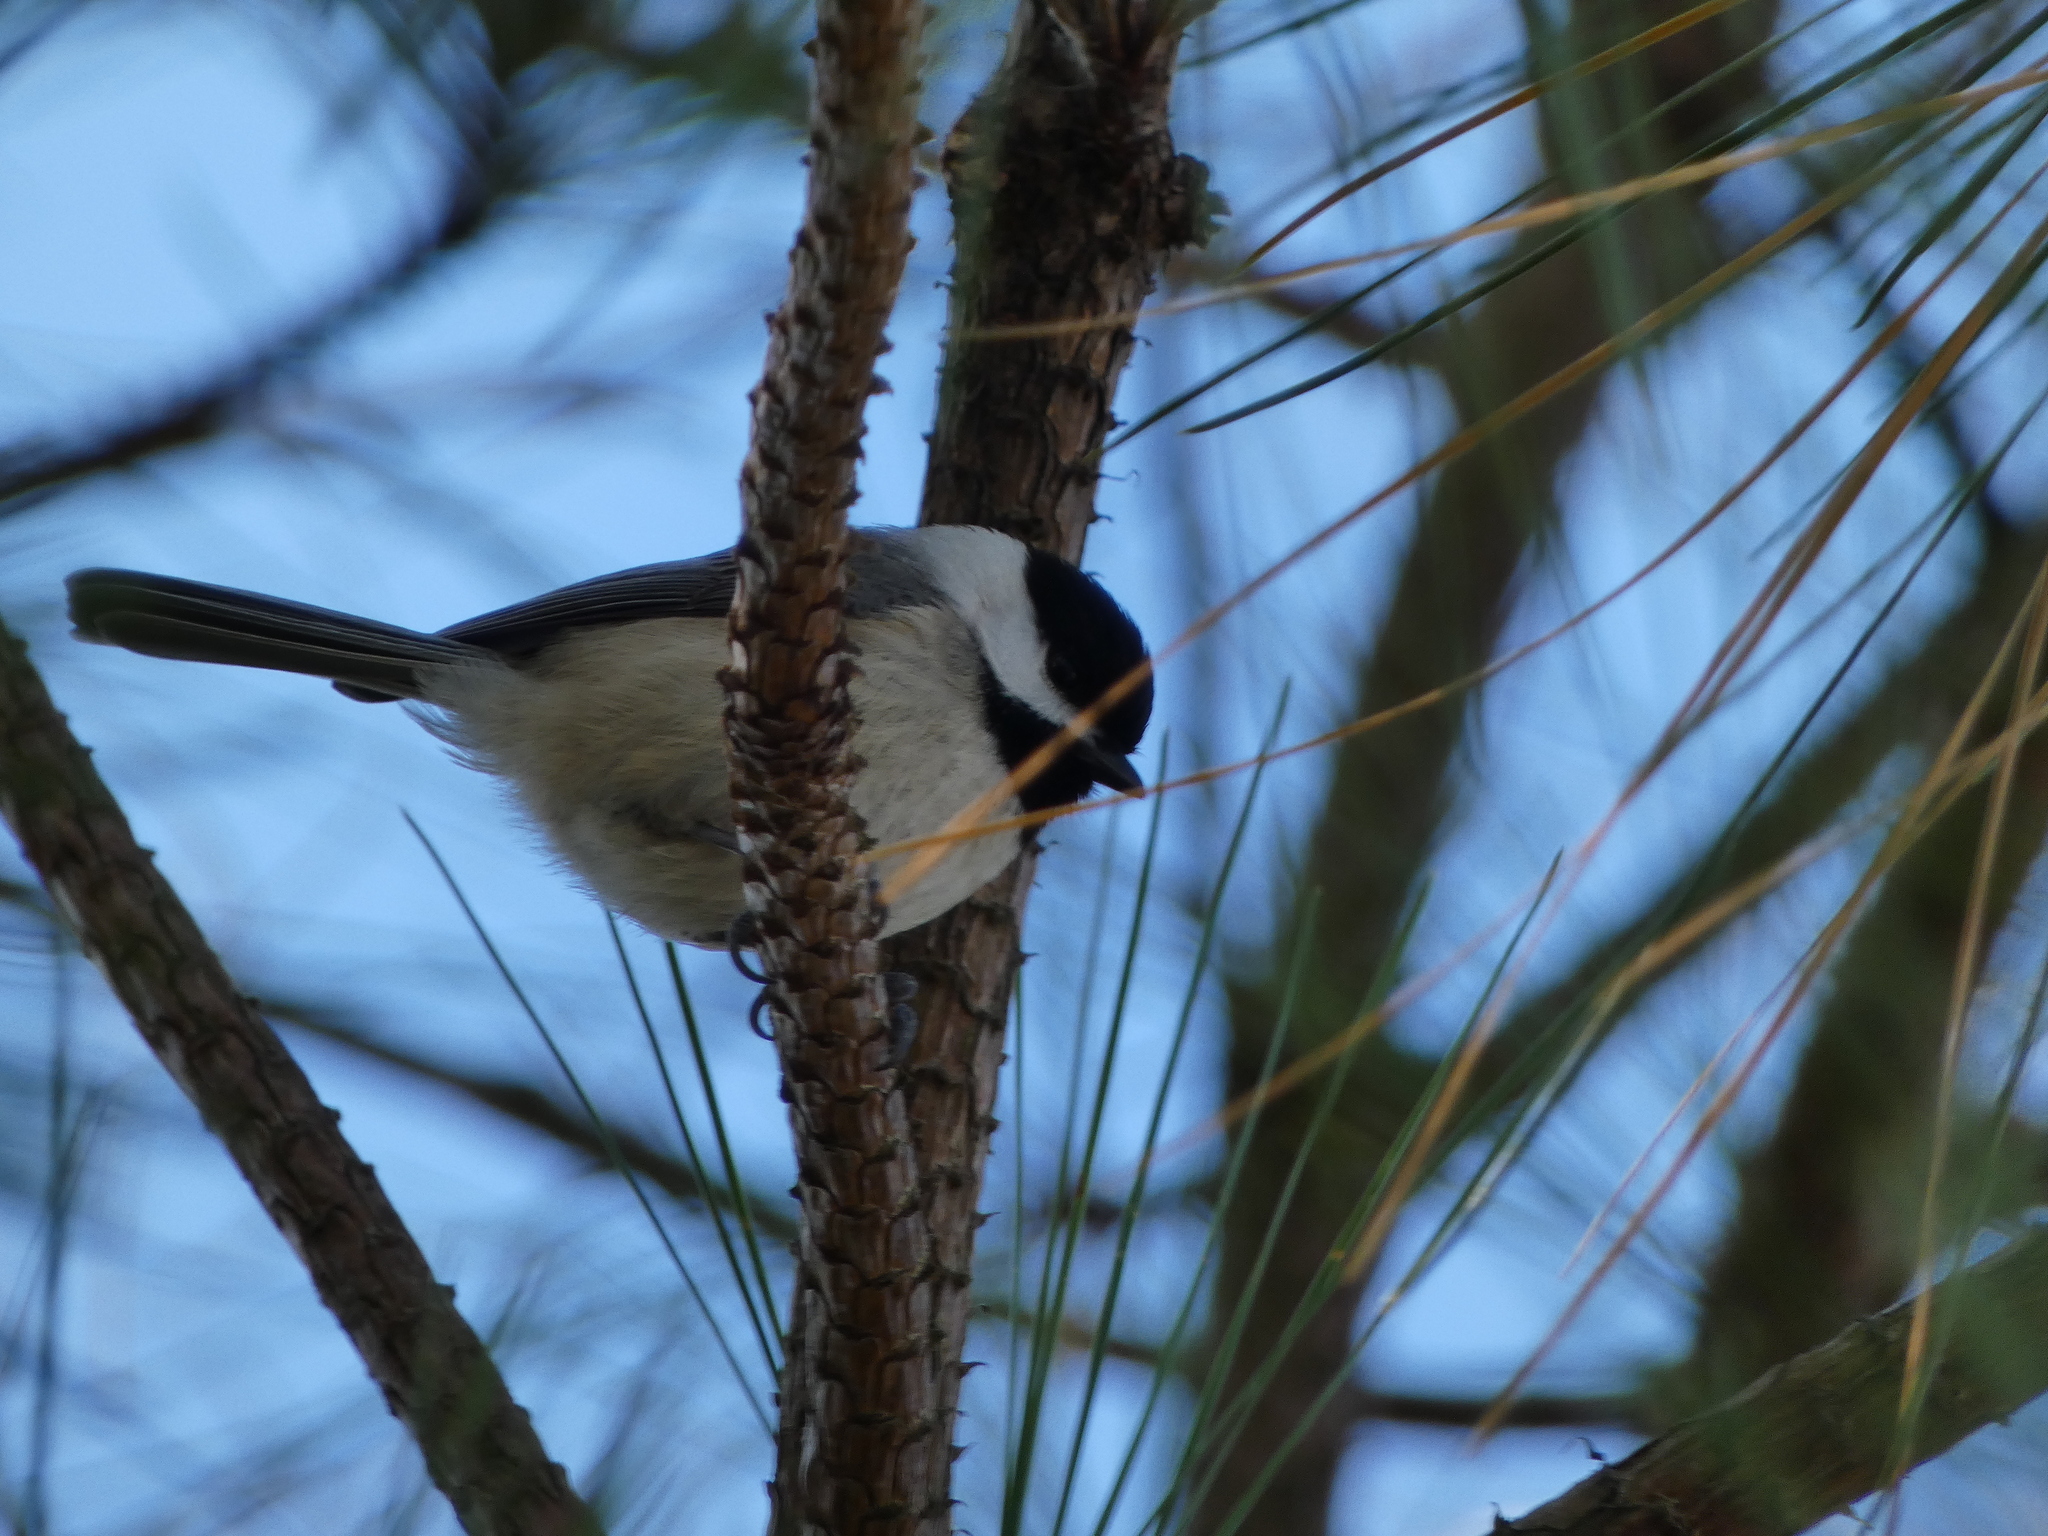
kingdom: Animalia
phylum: Chordata
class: Aves
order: Passeriformes
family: Paridae
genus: Poecile
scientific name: Poecile carolinensis
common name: Carolina chickadee
